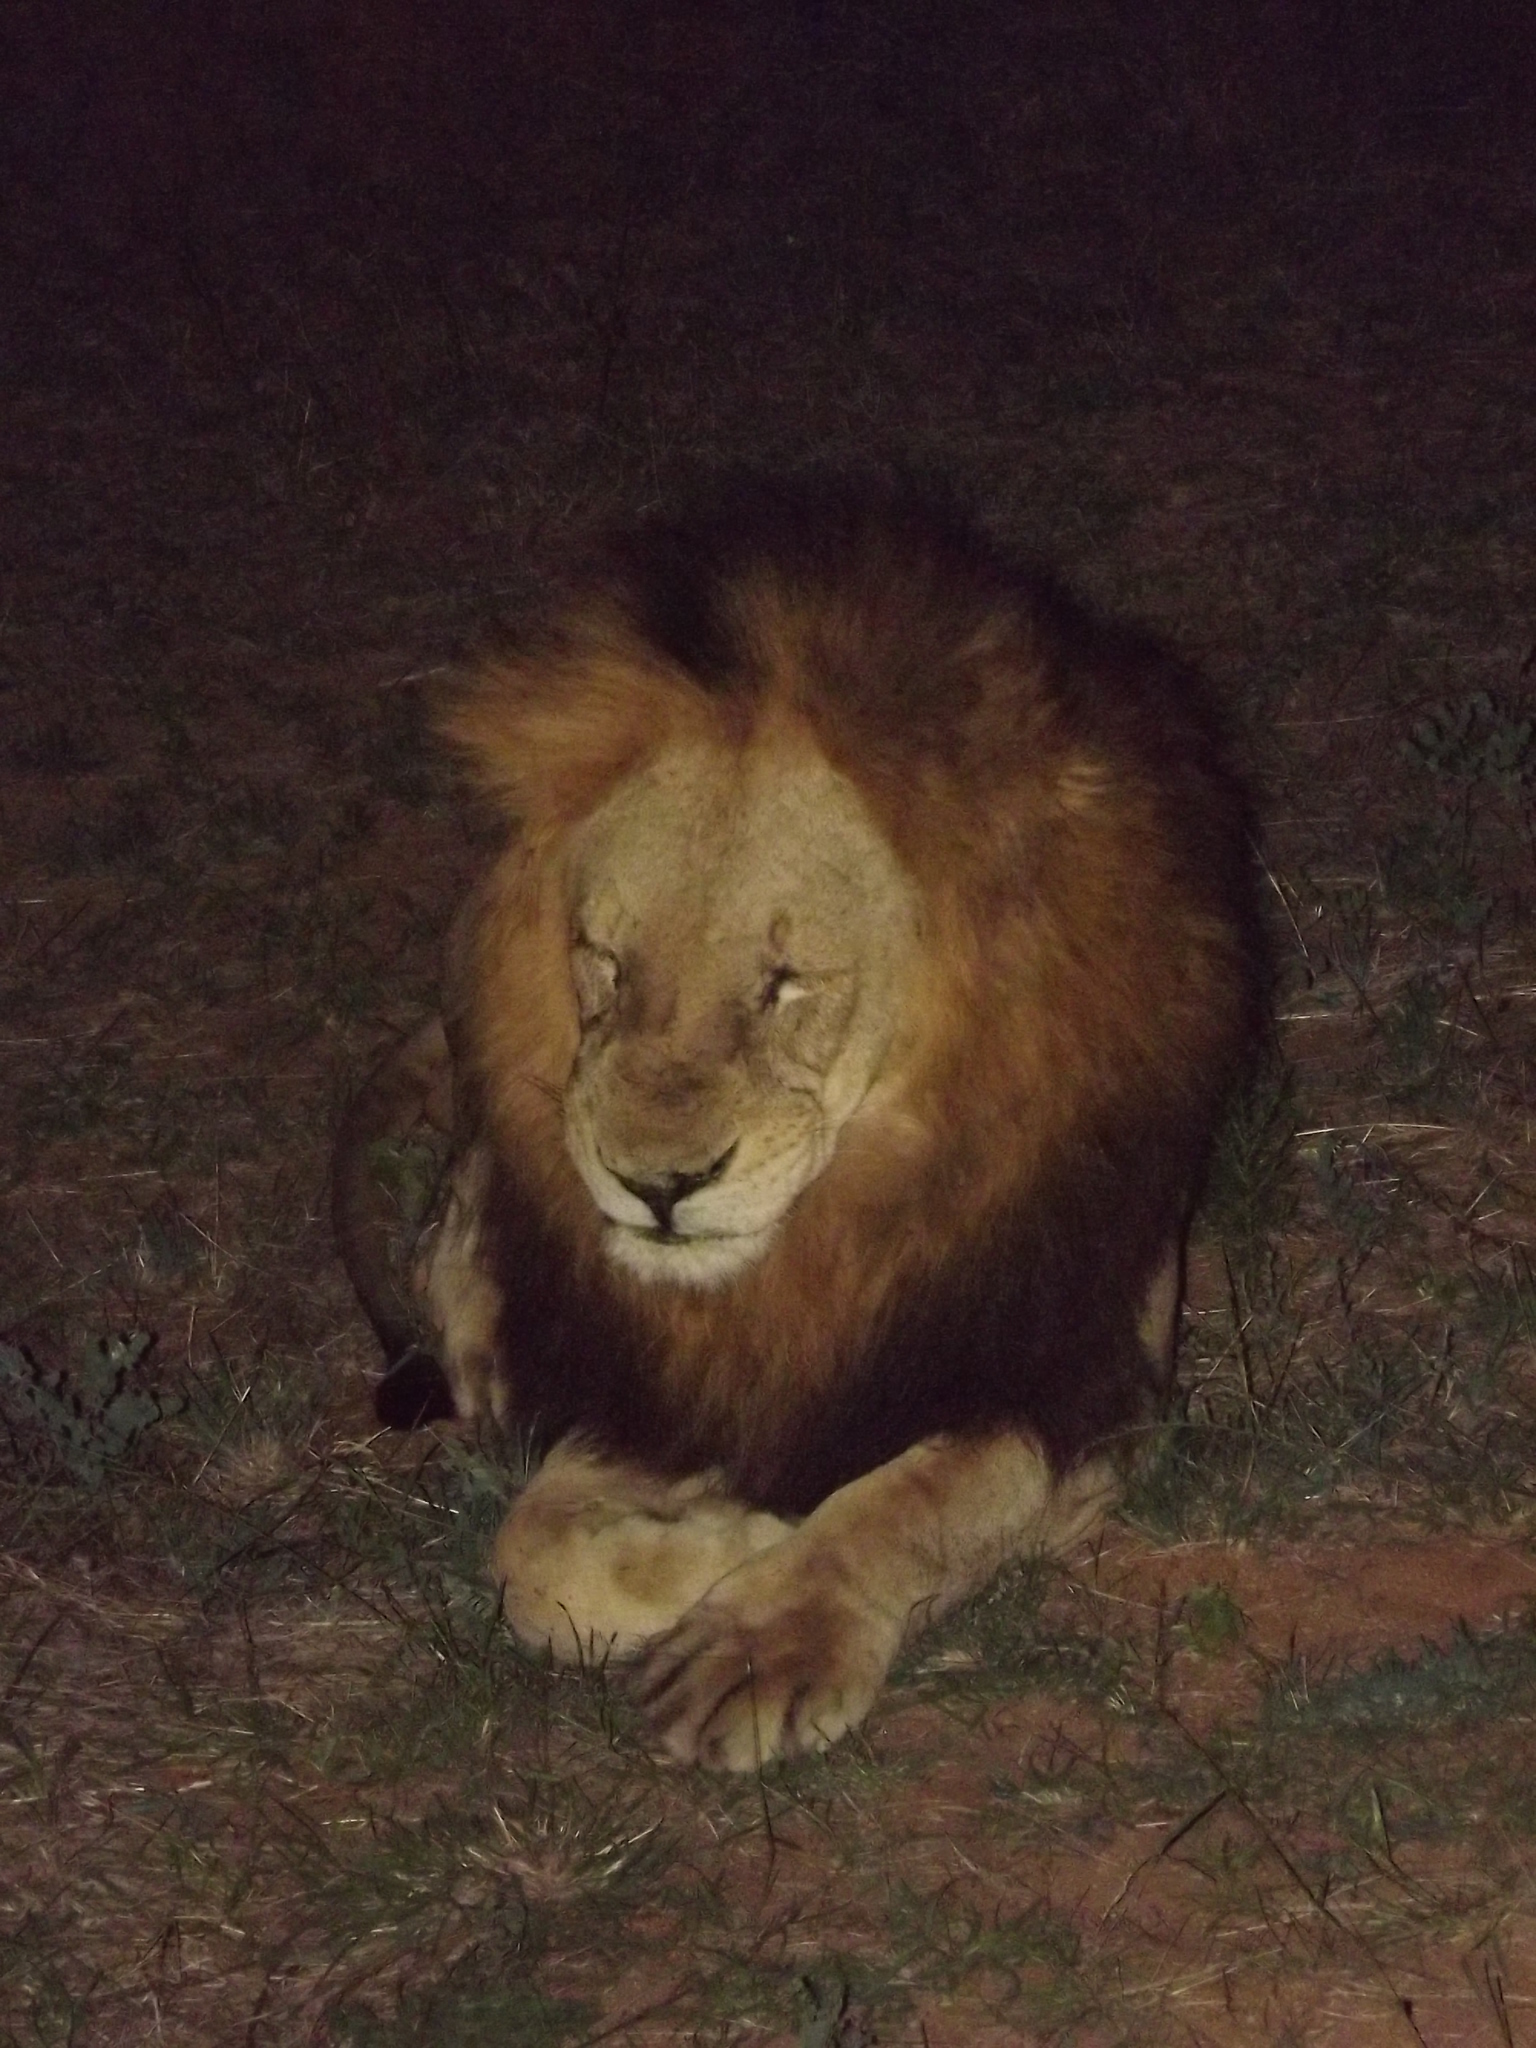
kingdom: Animalia
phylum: Chordata
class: Mammalia
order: Carnivora
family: Felidae
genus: Panthera
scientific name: Panthera leo
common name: Lion
